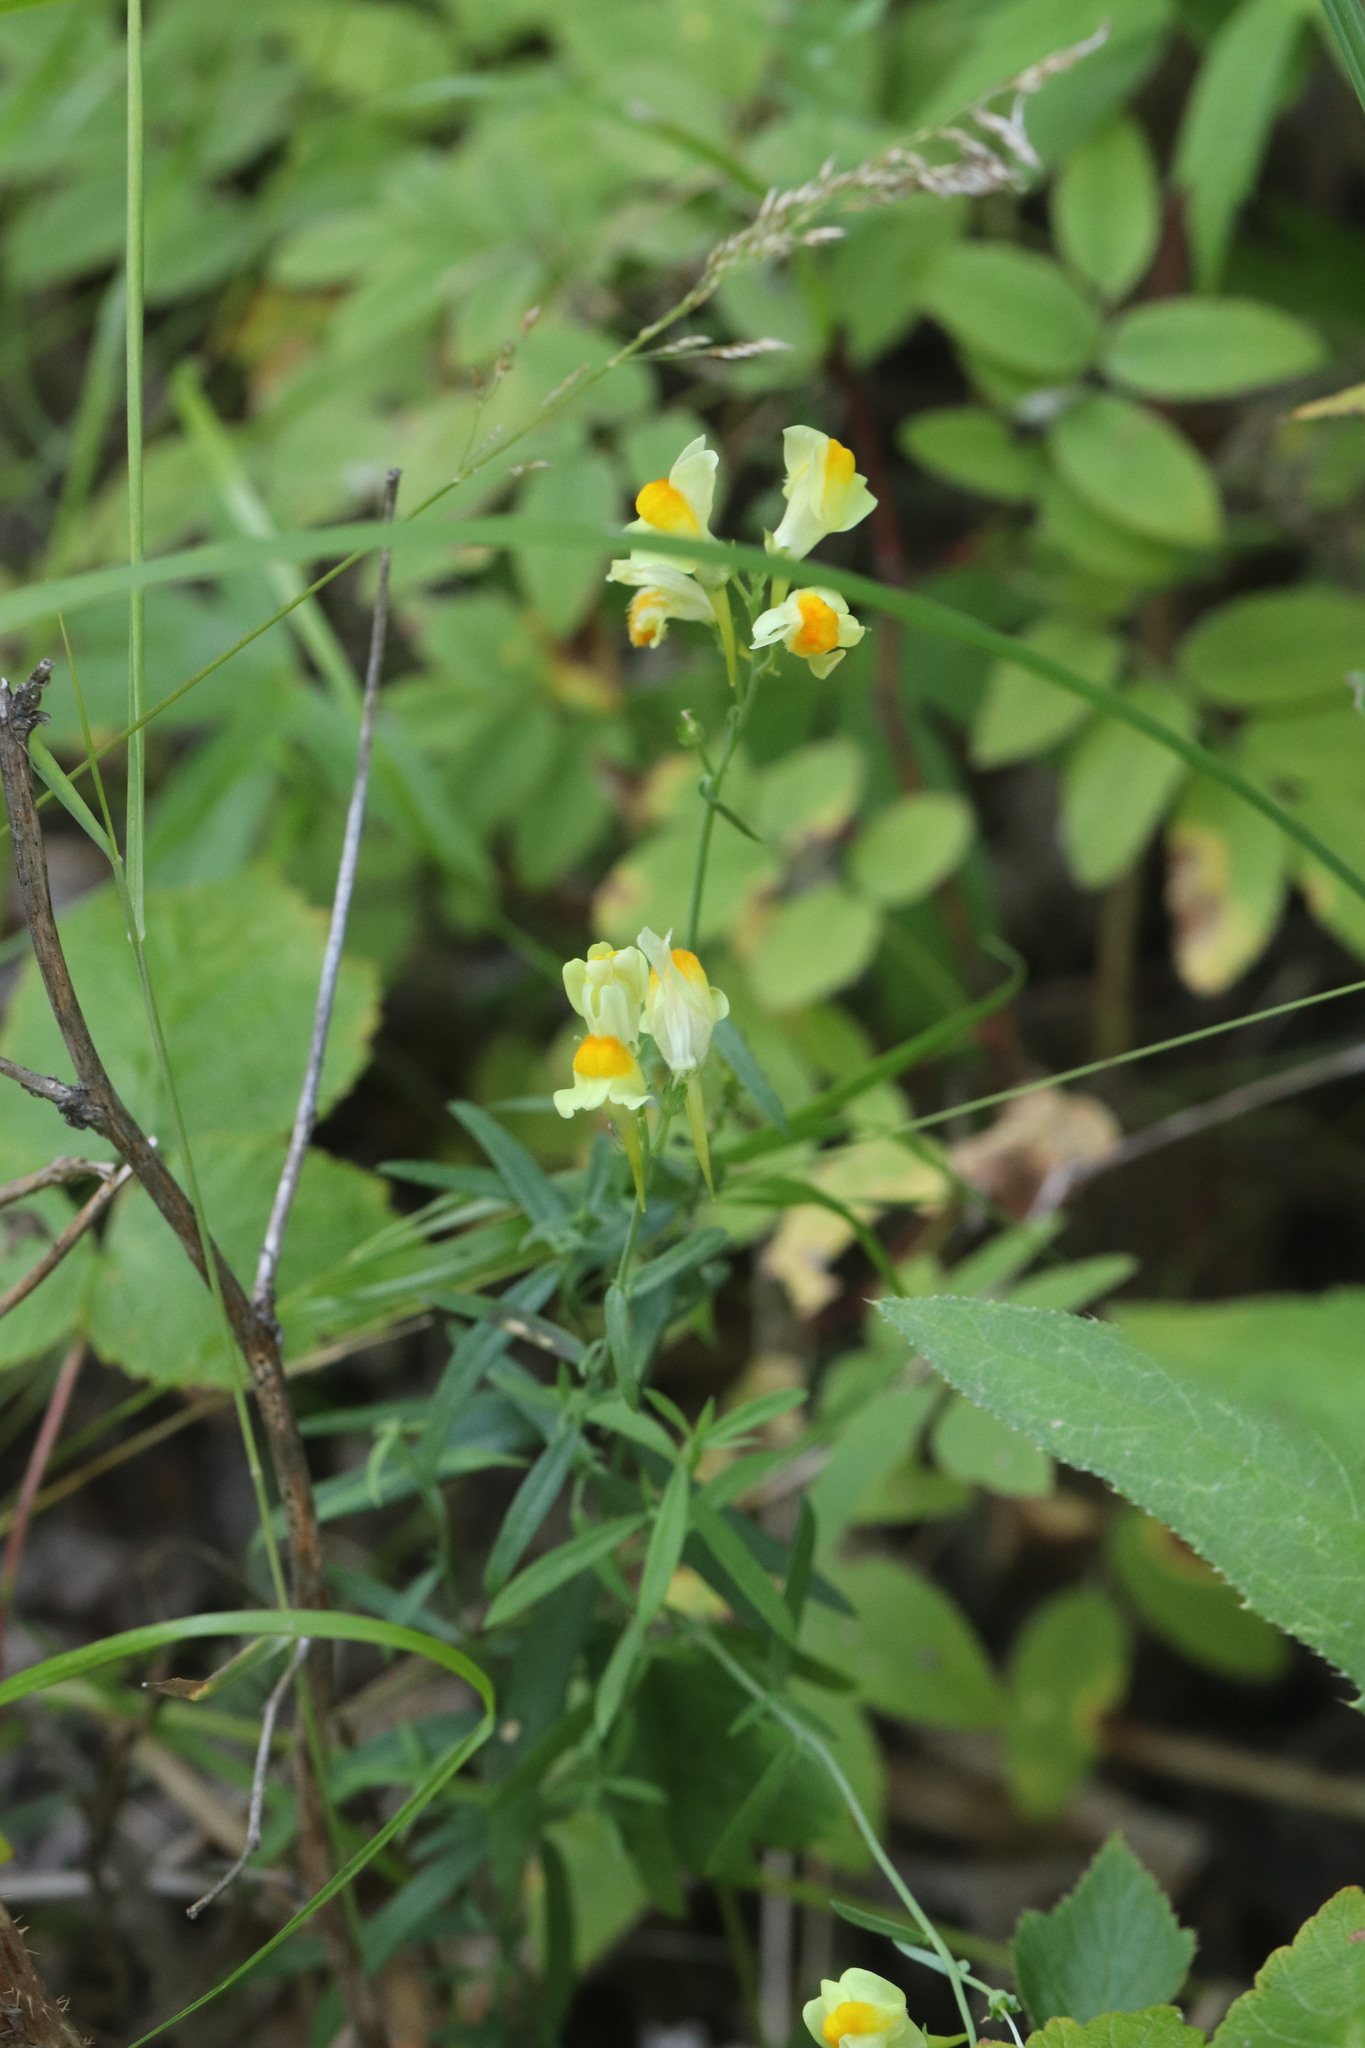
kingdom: Plantae
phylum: Tracheophyta
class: Magnoliopsida
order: Lamiales
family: Plantaginaceae
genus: Linaria
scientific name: Linaria vulgaris
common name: Butter and eggs
